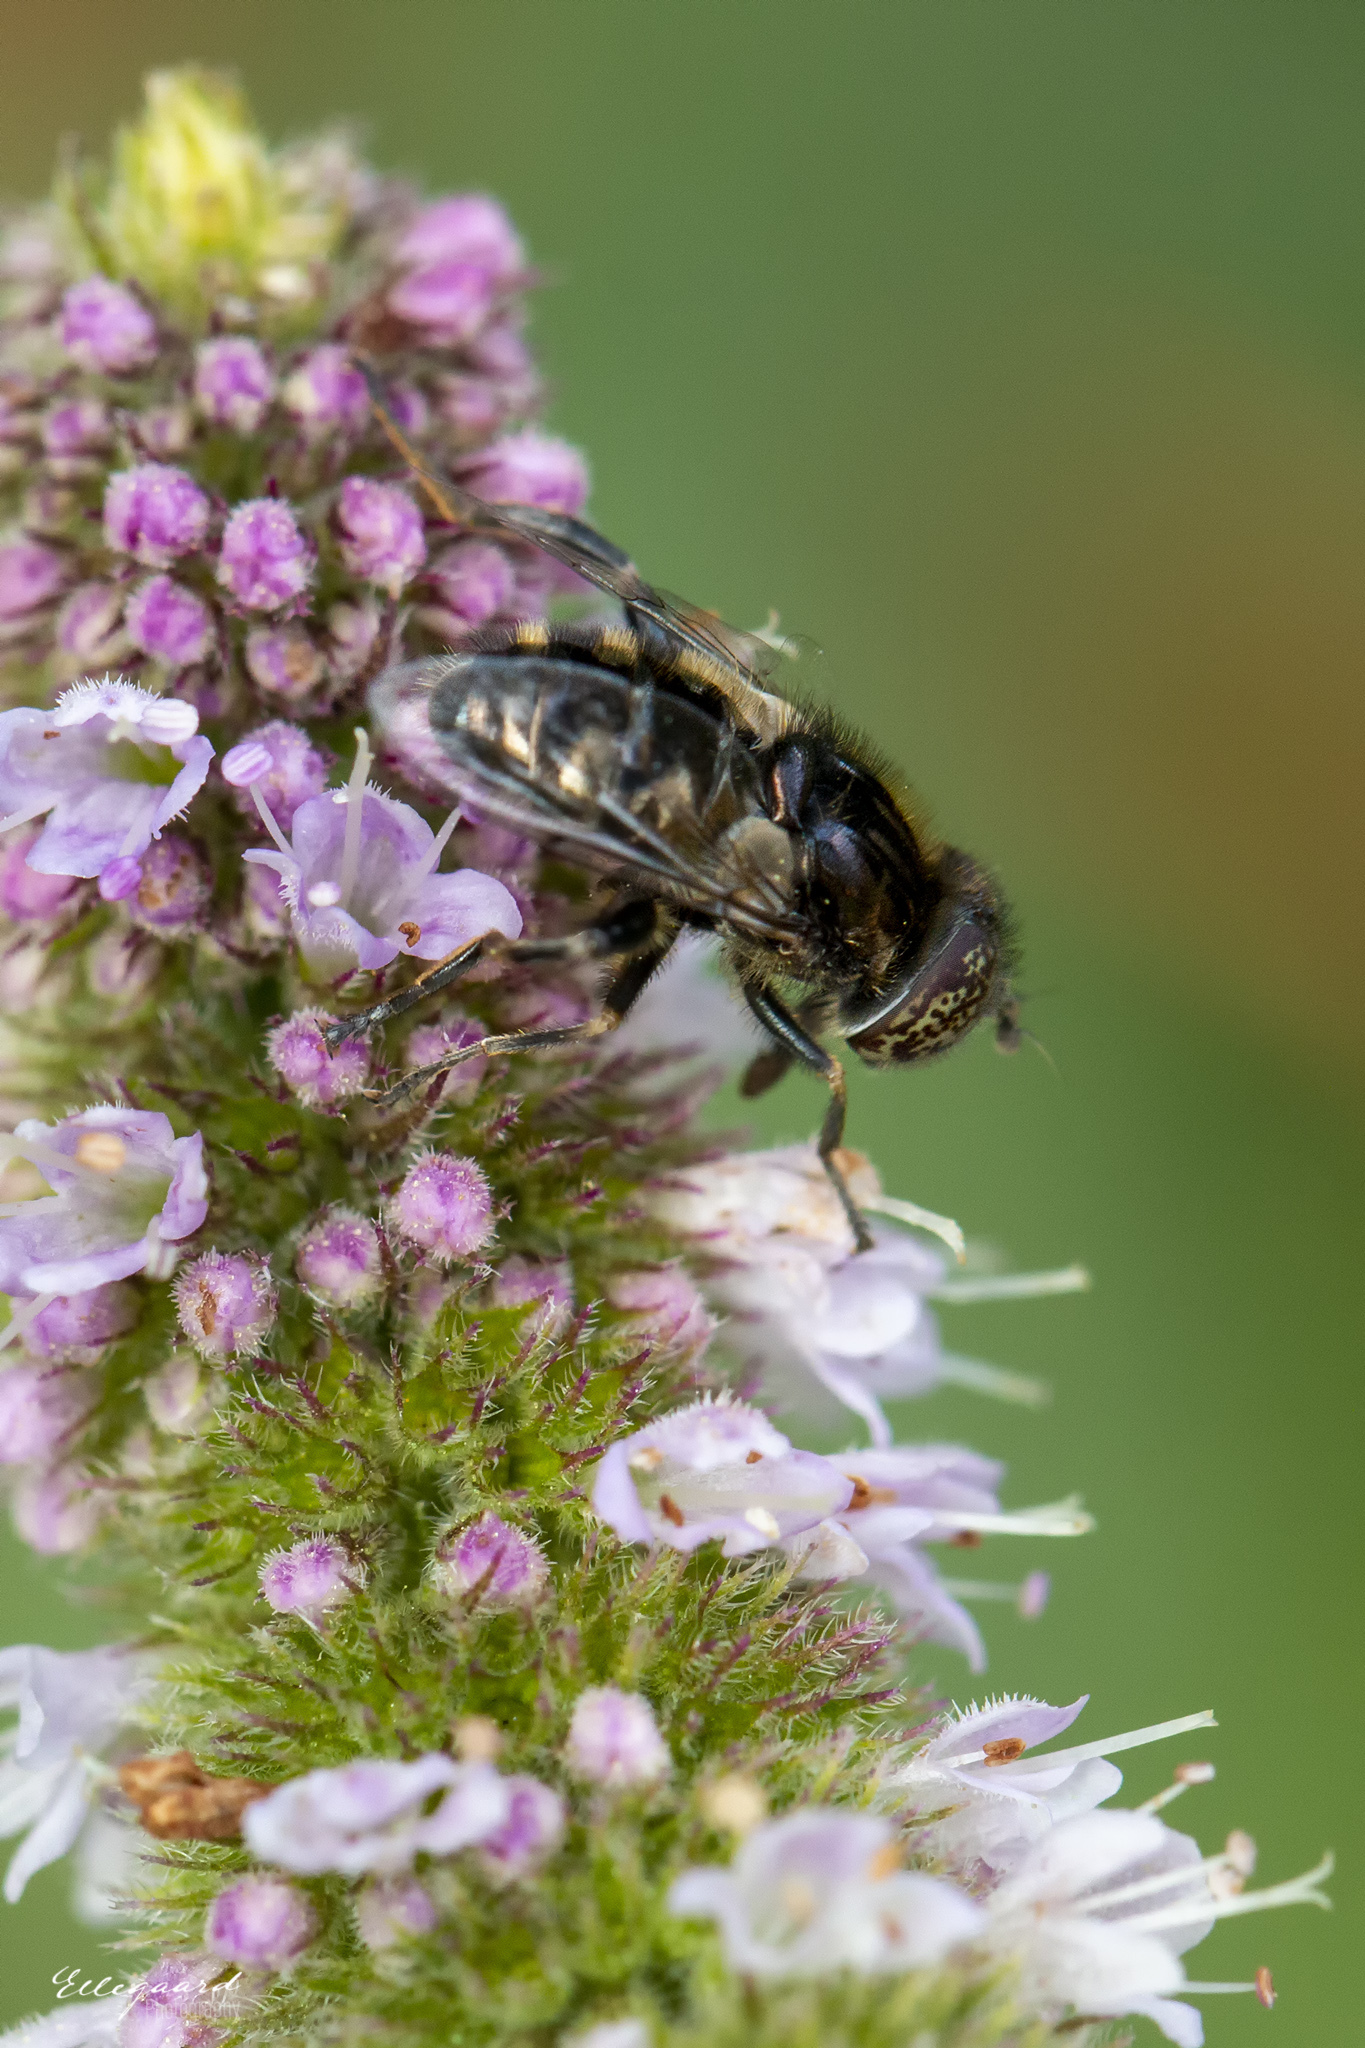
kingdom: Animalia
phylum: Arthropoda
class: Insecta
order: Diptera
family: Syrphidae
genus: Eristalinus
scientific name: Eristalinus aeneus
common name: Syrphid fly
